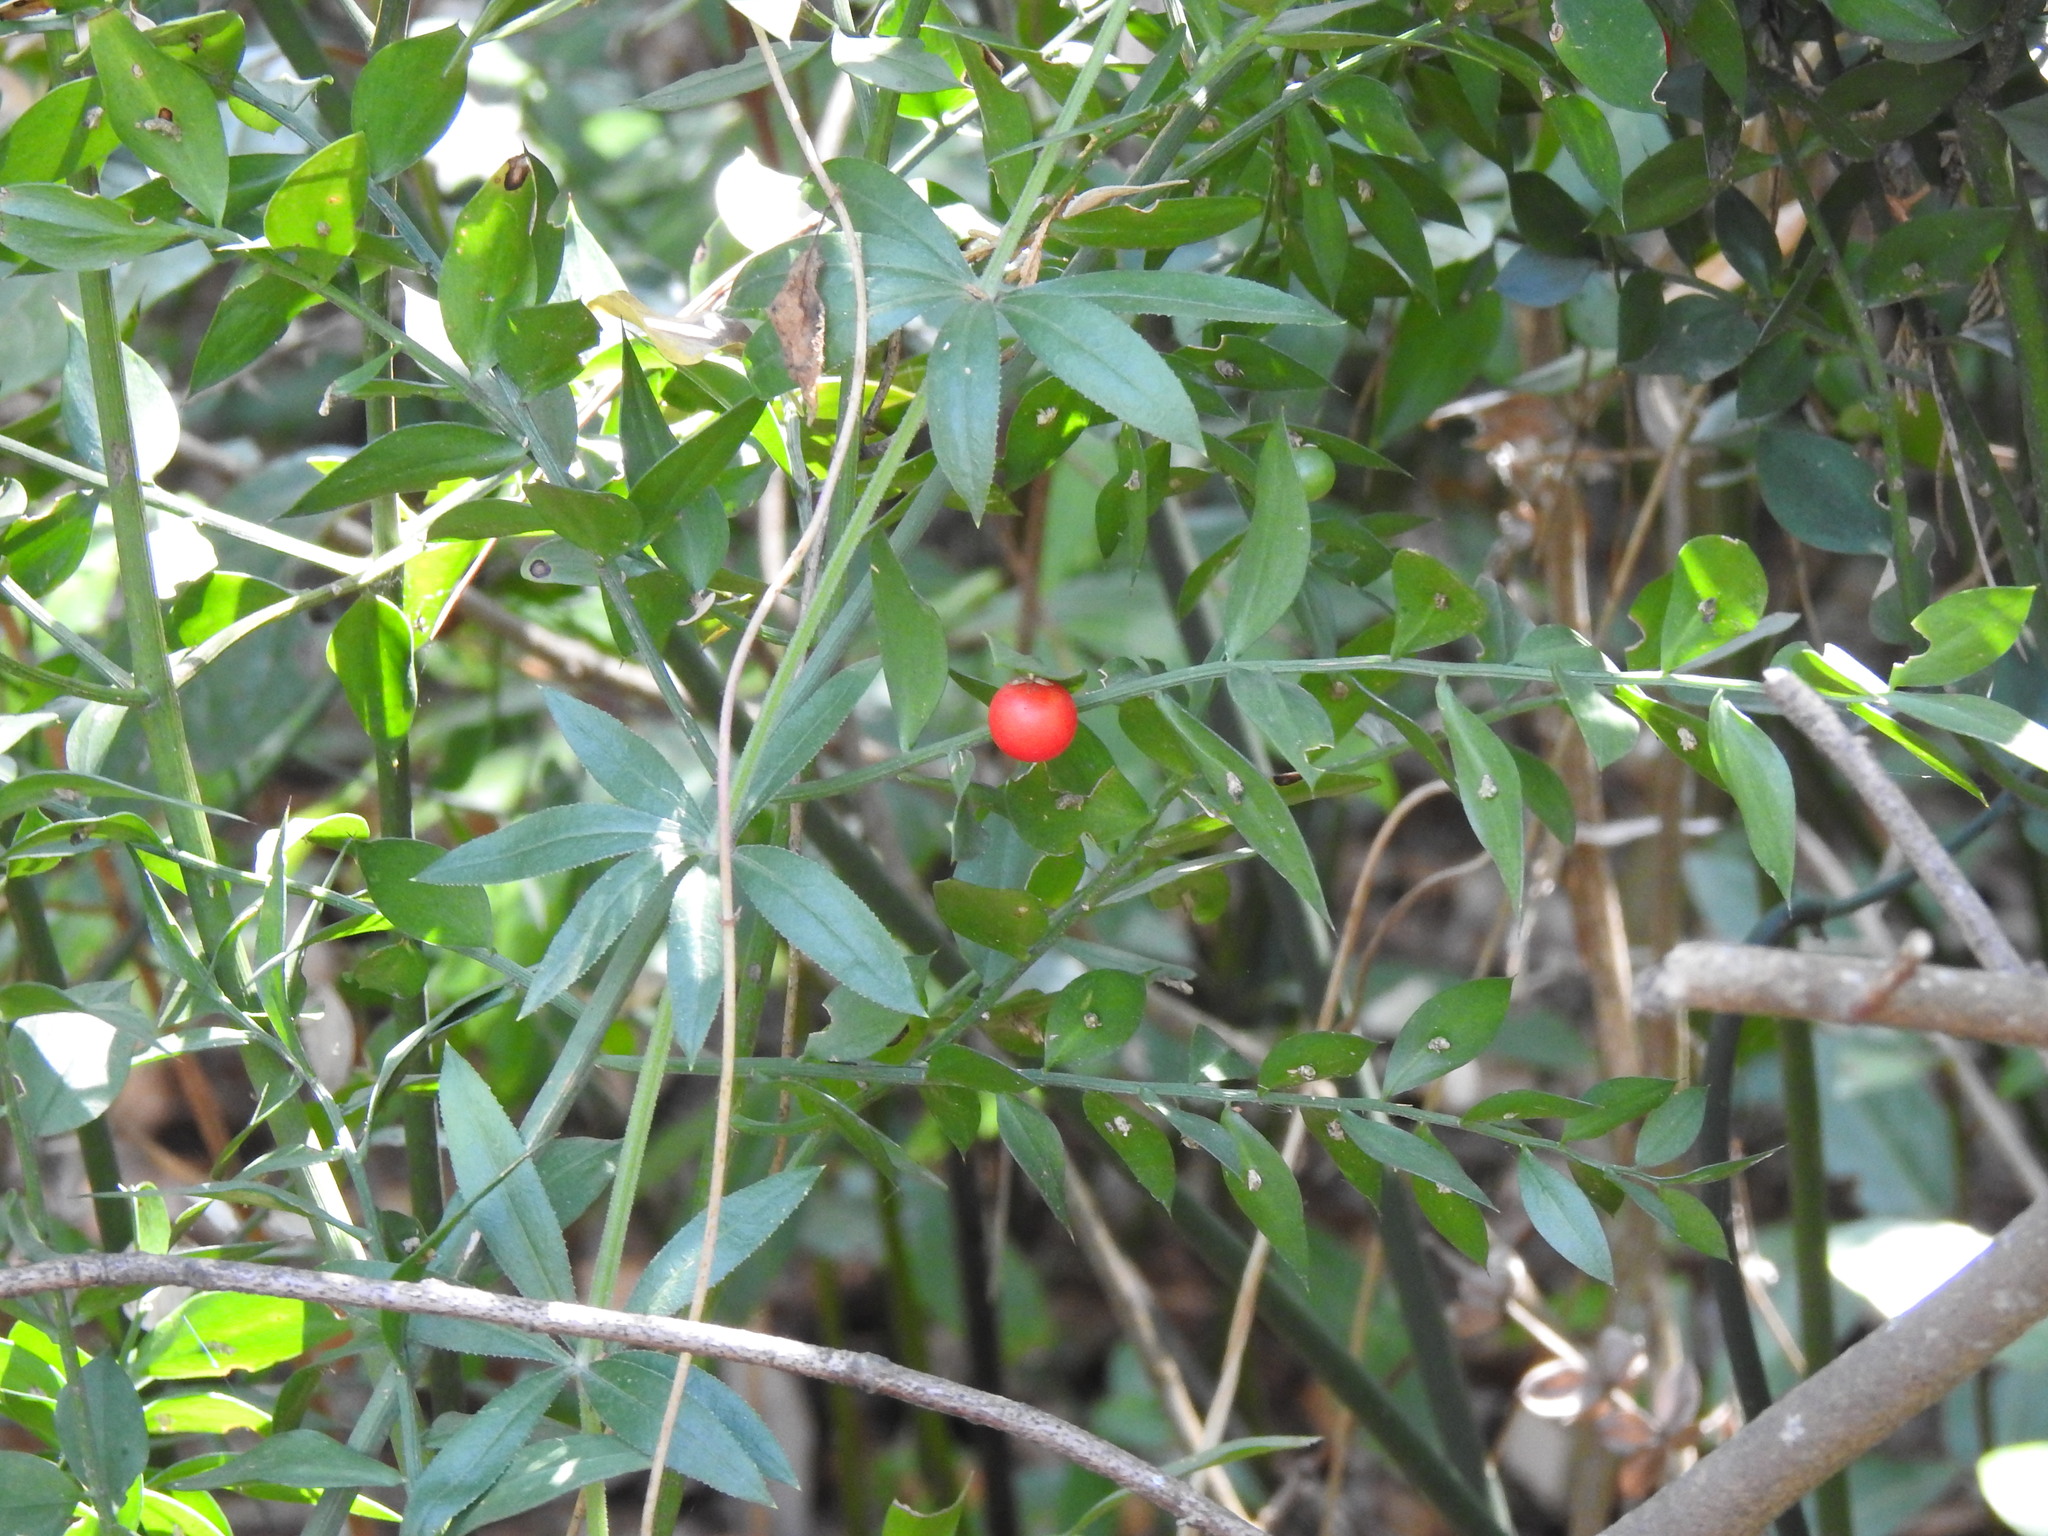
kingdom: Plantae
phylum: Tracheophyta
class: Liliopsida
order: Asparagales
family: Asparagaceae
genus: Ruscus
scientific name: Ruscus aculeatus
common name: Butcher's-broom
